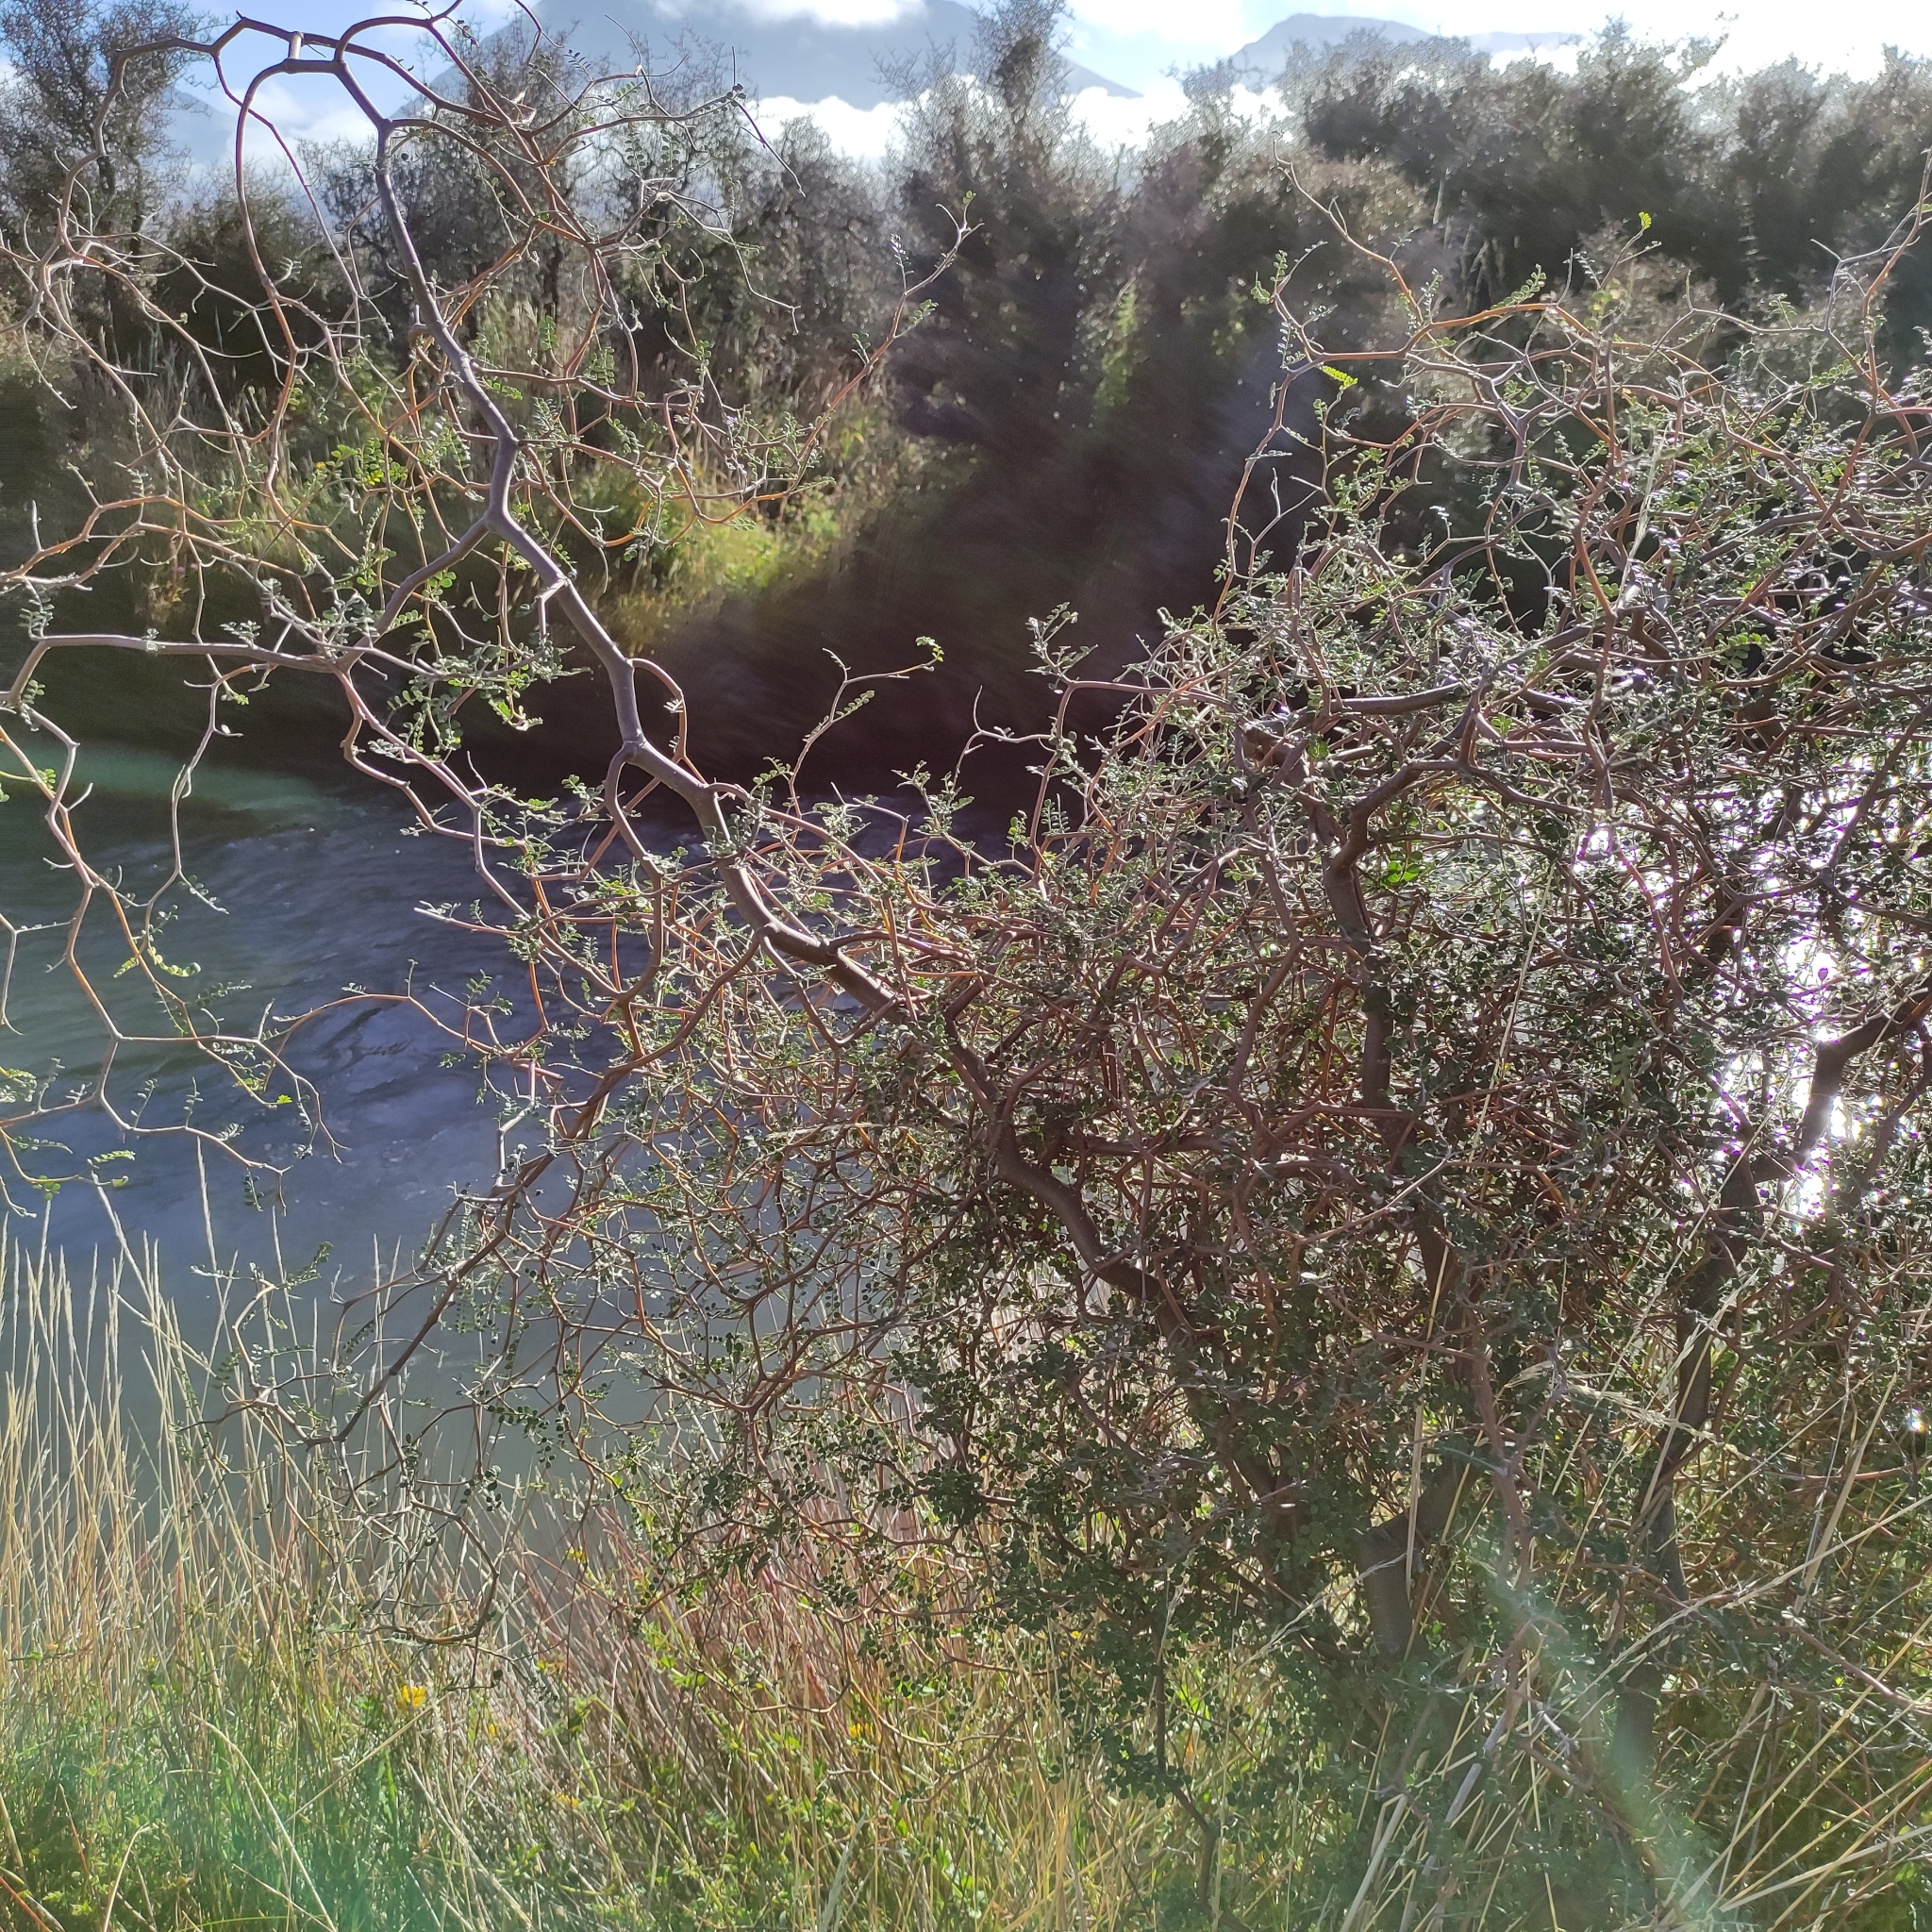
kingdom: Plantae
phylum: Tracheophyta
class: Magnoliopsida
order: Fabales
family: Fabaceae
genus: Sophora
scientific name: Sophora prostrata
